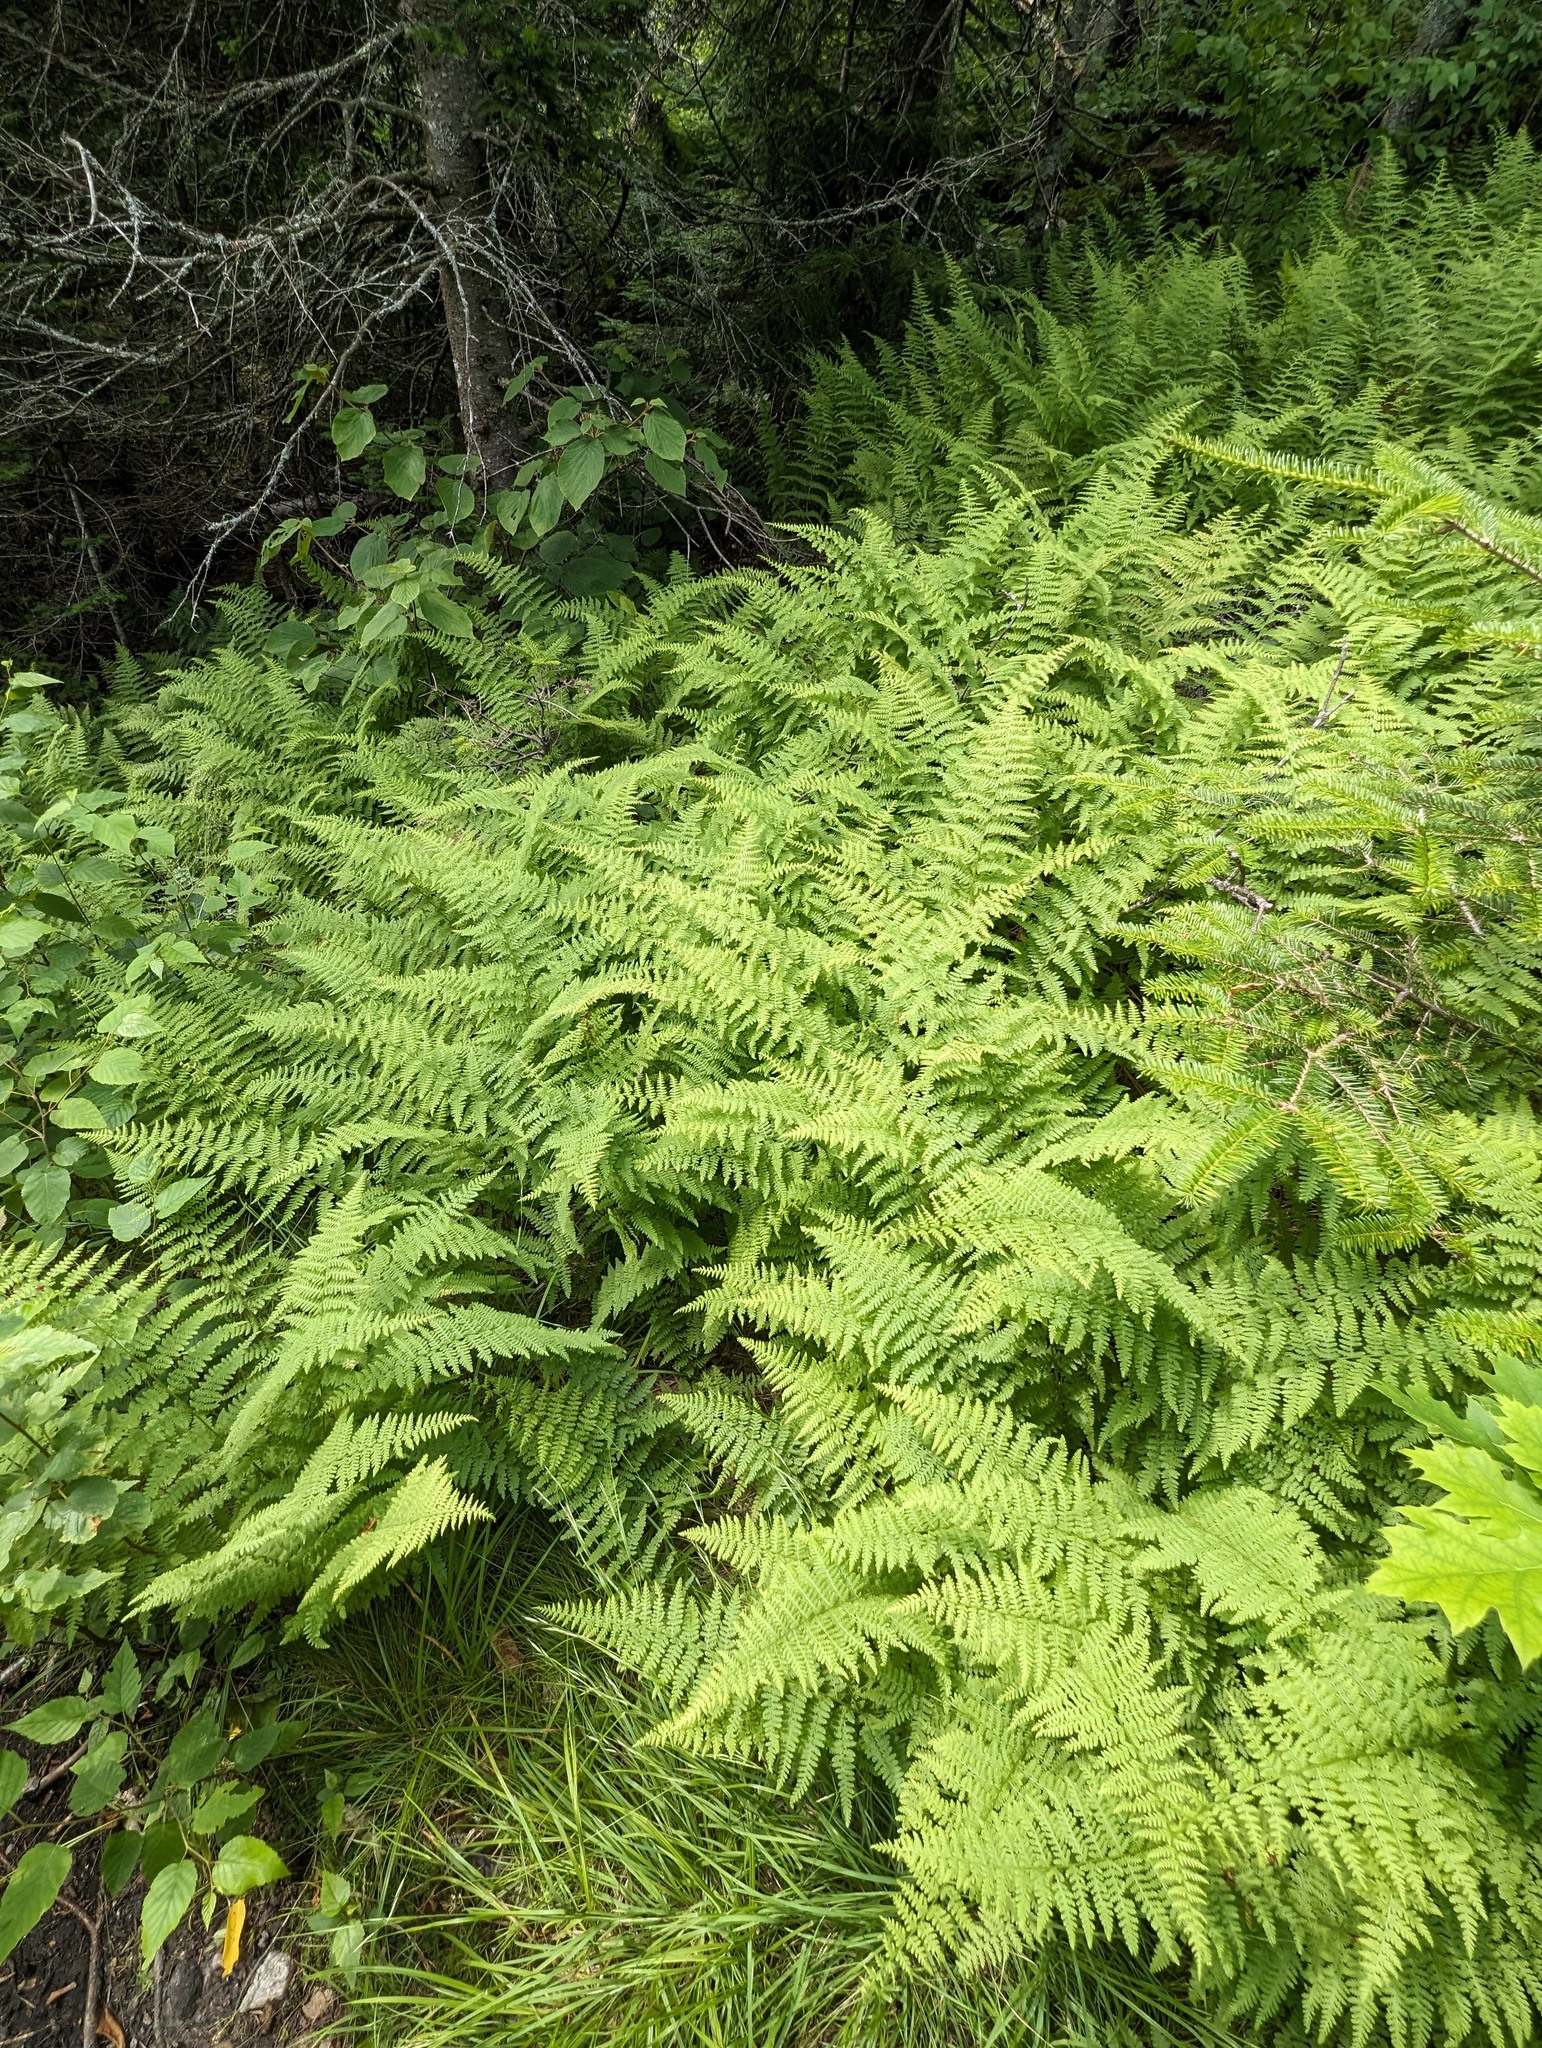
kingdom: Plantae
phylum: Tracheophyta
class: Polypodiopsida
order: Polypodiales
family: Dennstaedtiaceae
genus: Sitobolium
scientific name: Sitobolium punctilobum
